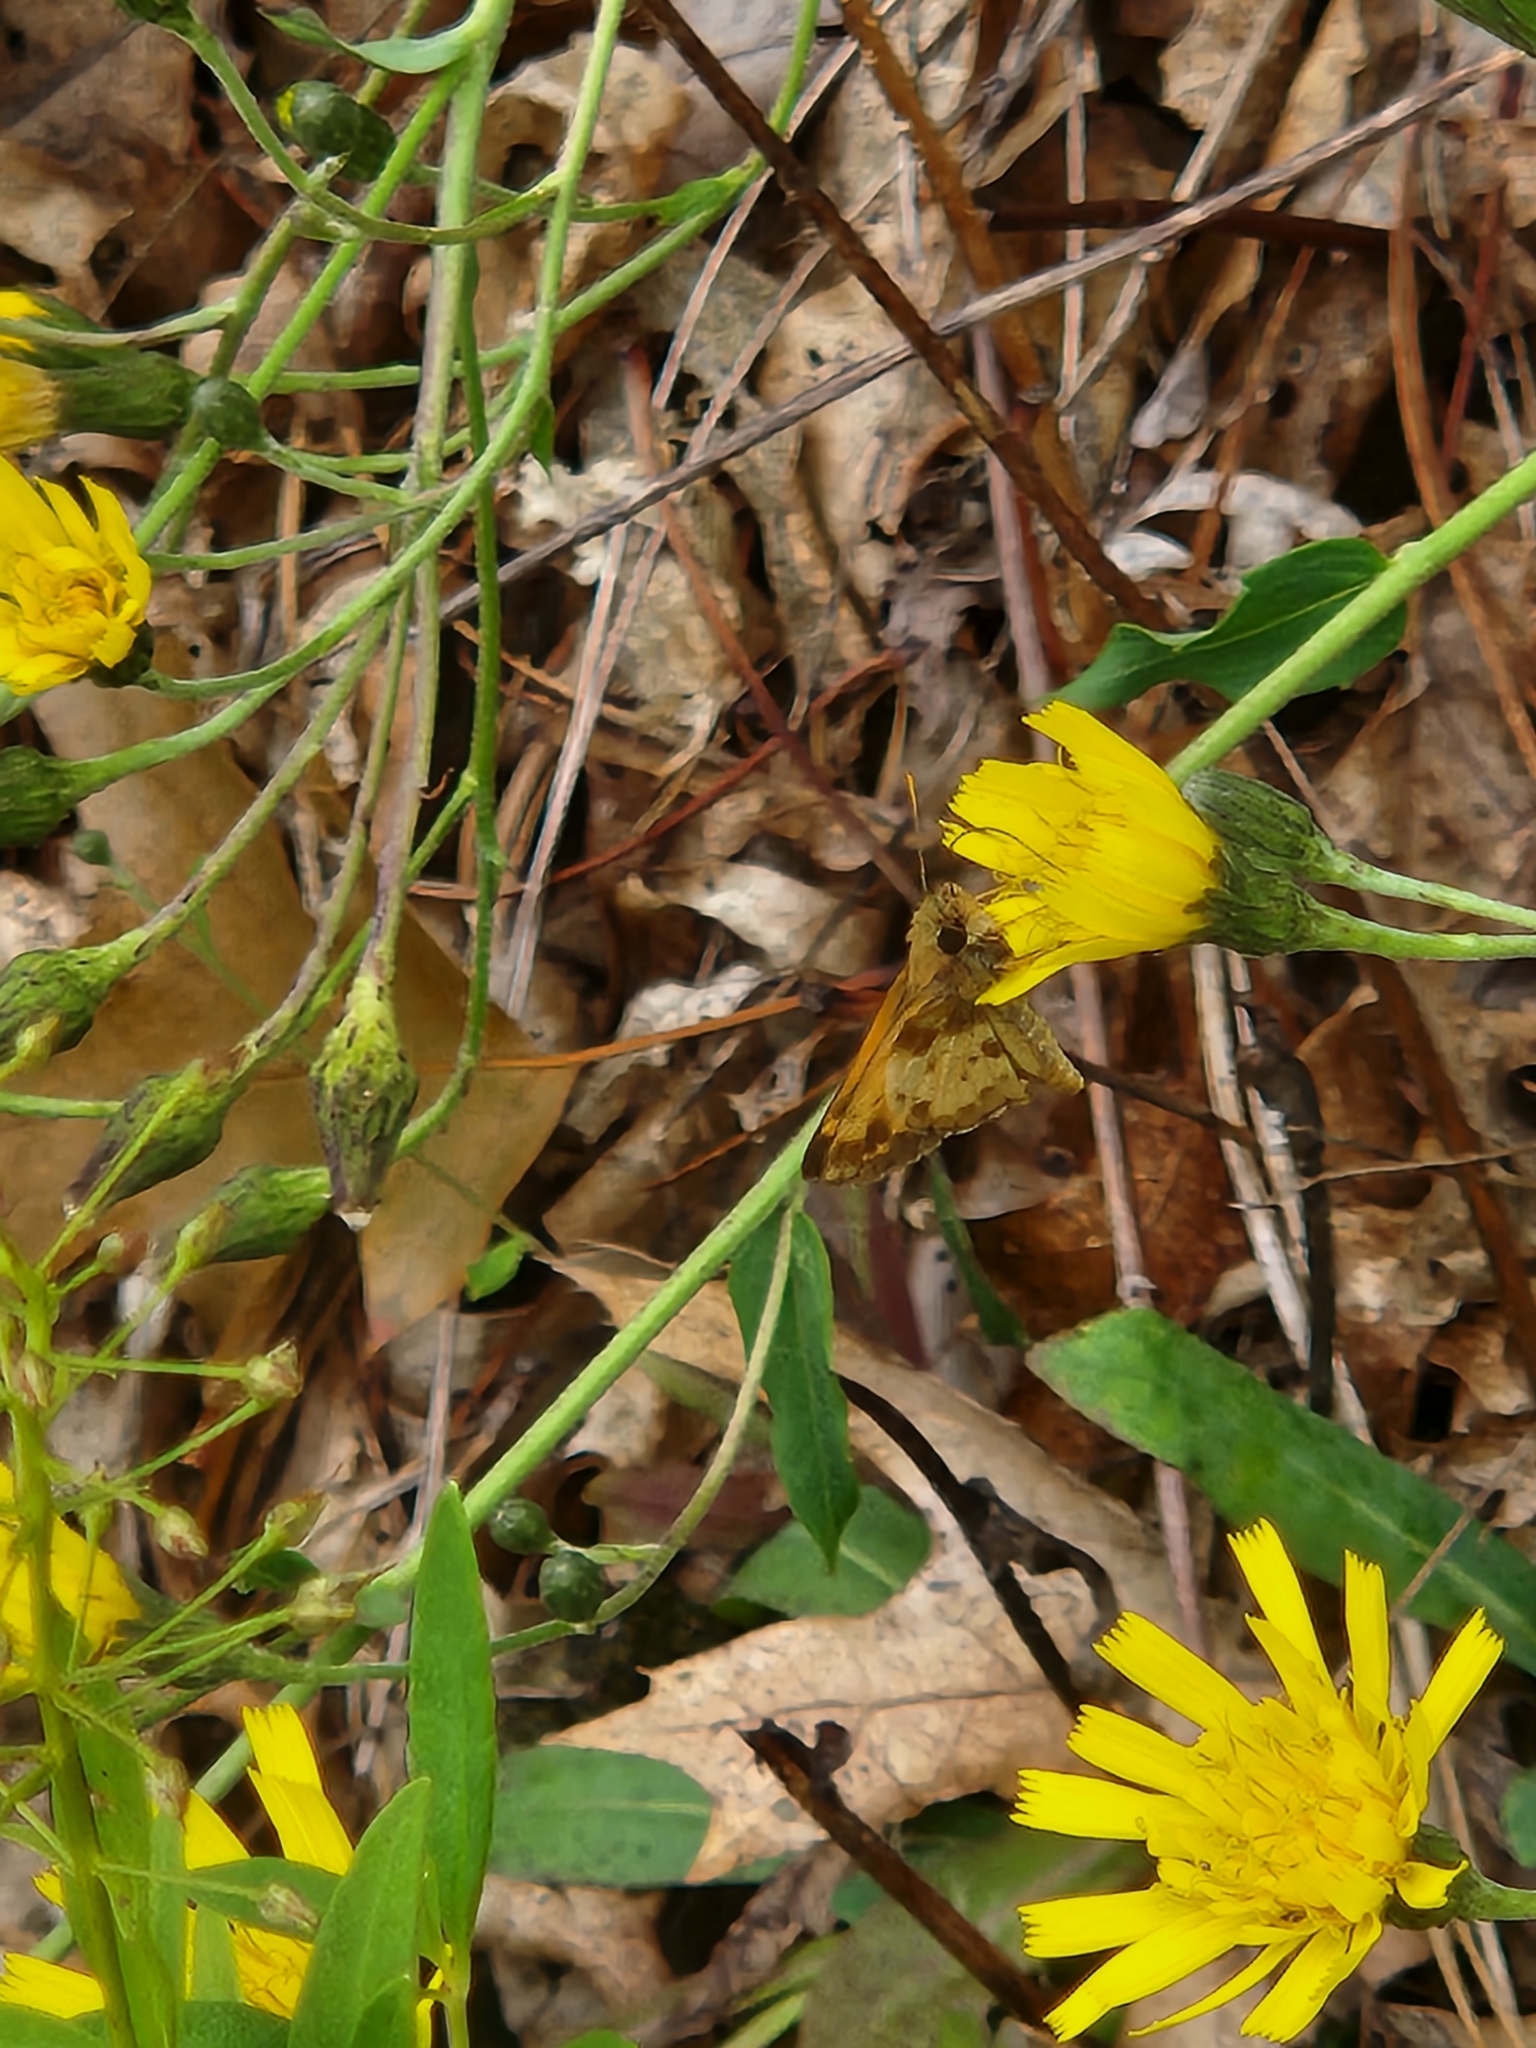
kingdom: Animalia
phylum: Arthropoda
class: Insecta
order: Lepidoptera
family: Hesperiidae
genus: Lon
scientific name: Lon zabulon
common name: Zabulon skipper
